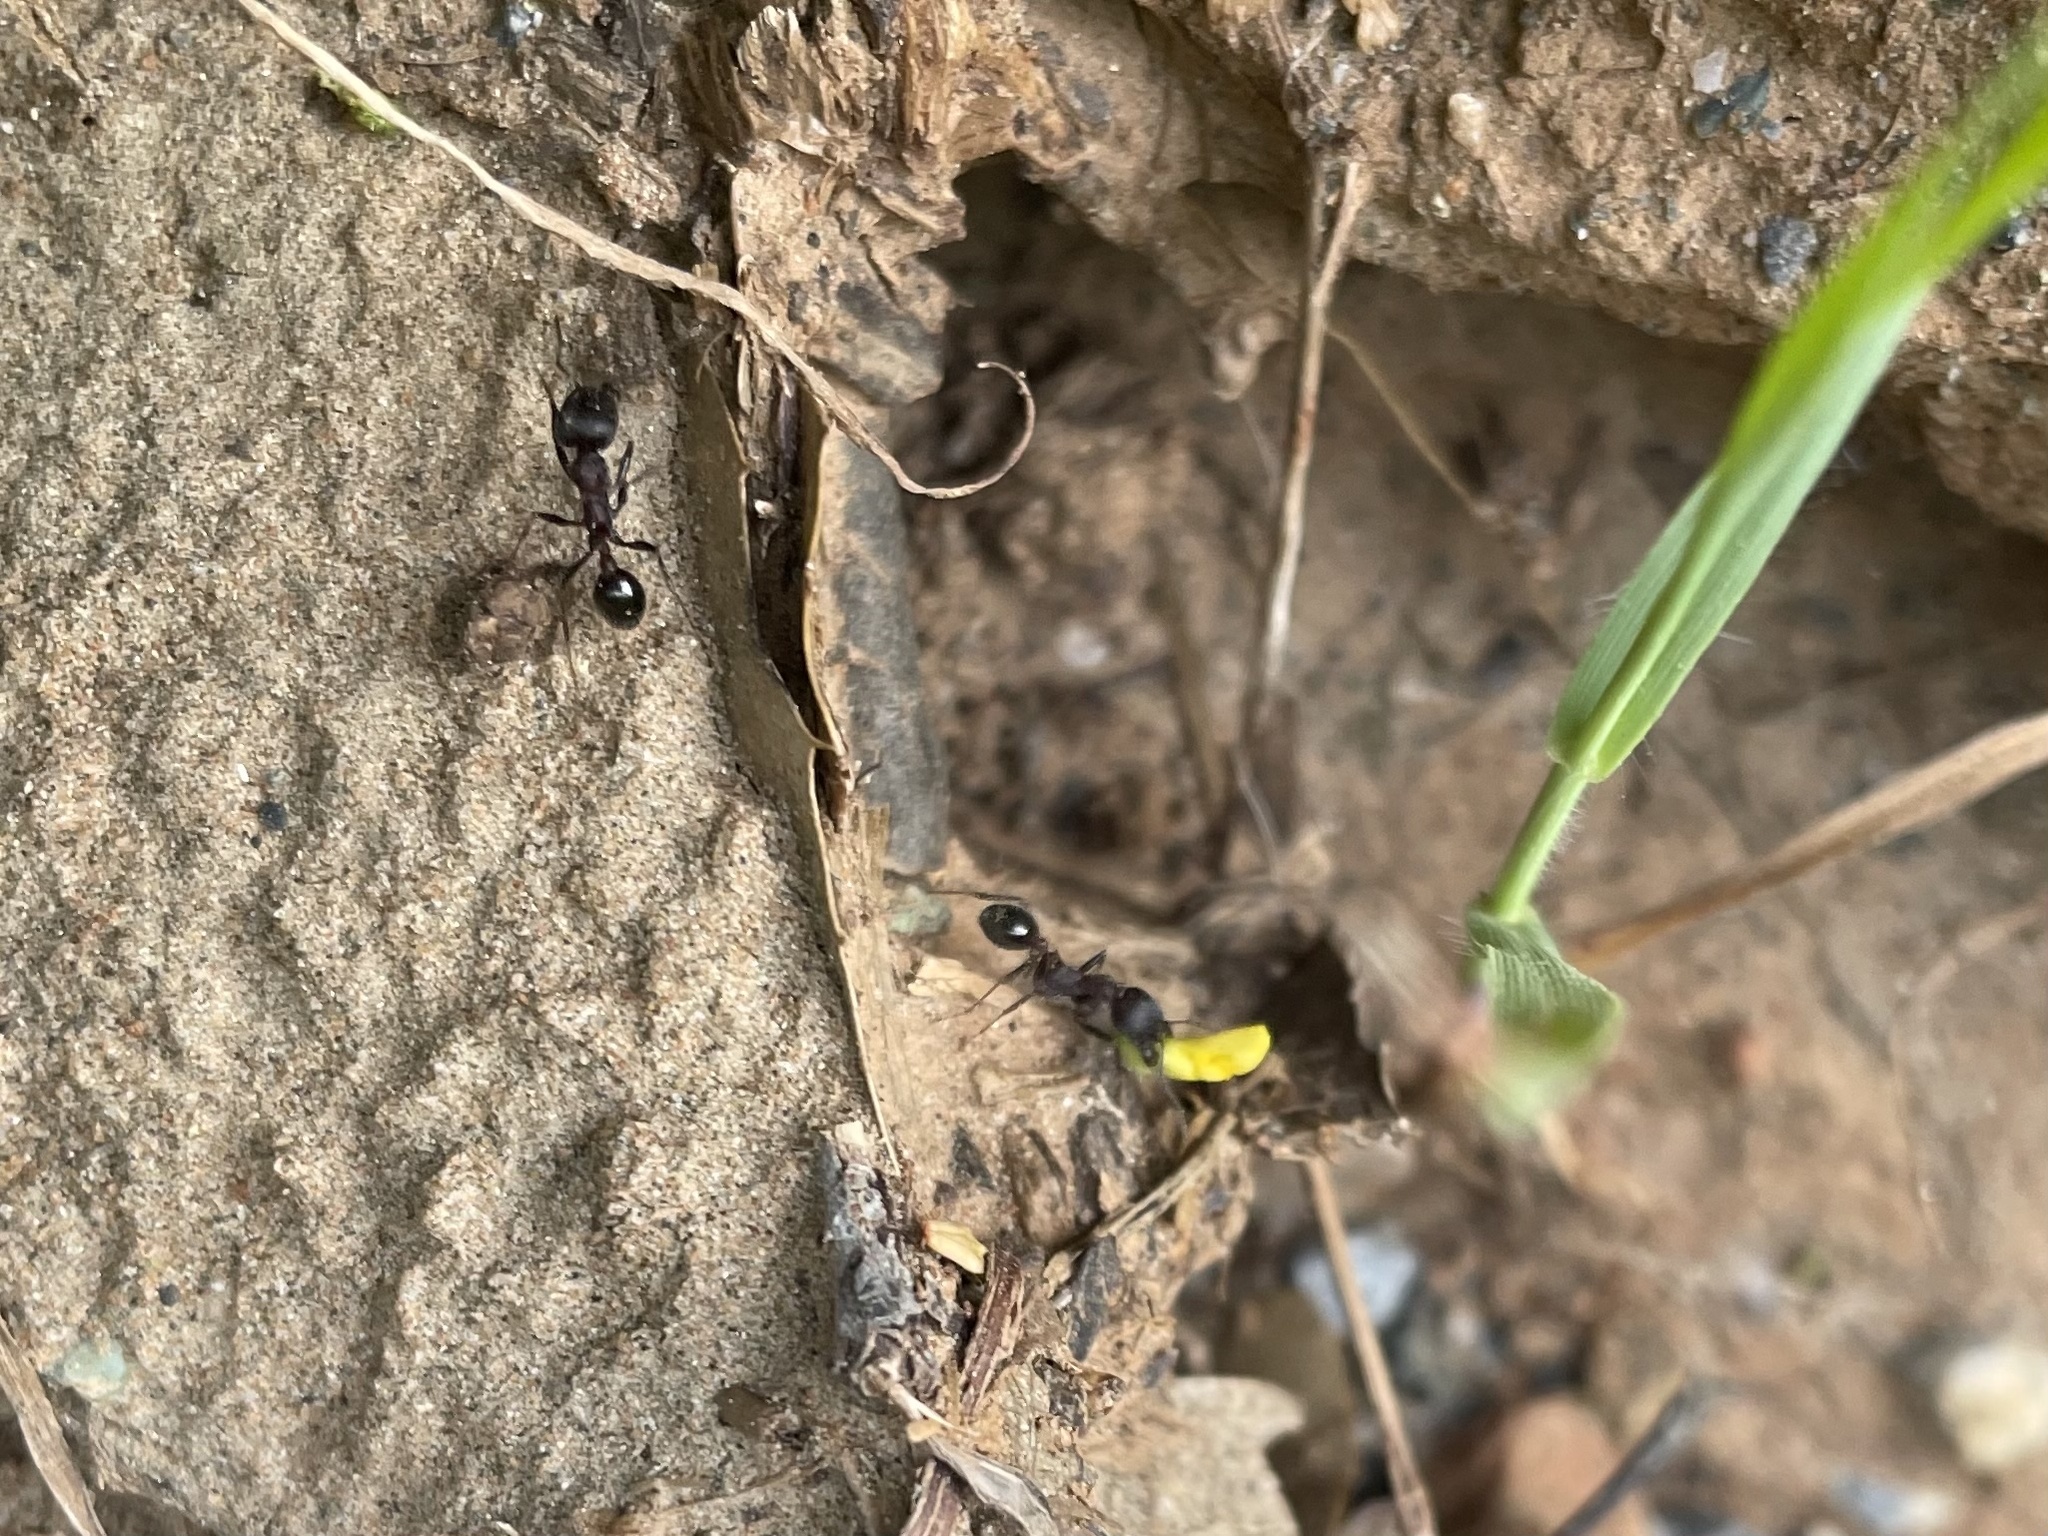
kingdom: Animalia
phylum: Arthropoda
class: Insecta
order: Hymenoptera
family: Formicidae
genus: Veromessor
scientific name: Veromessor andrei
